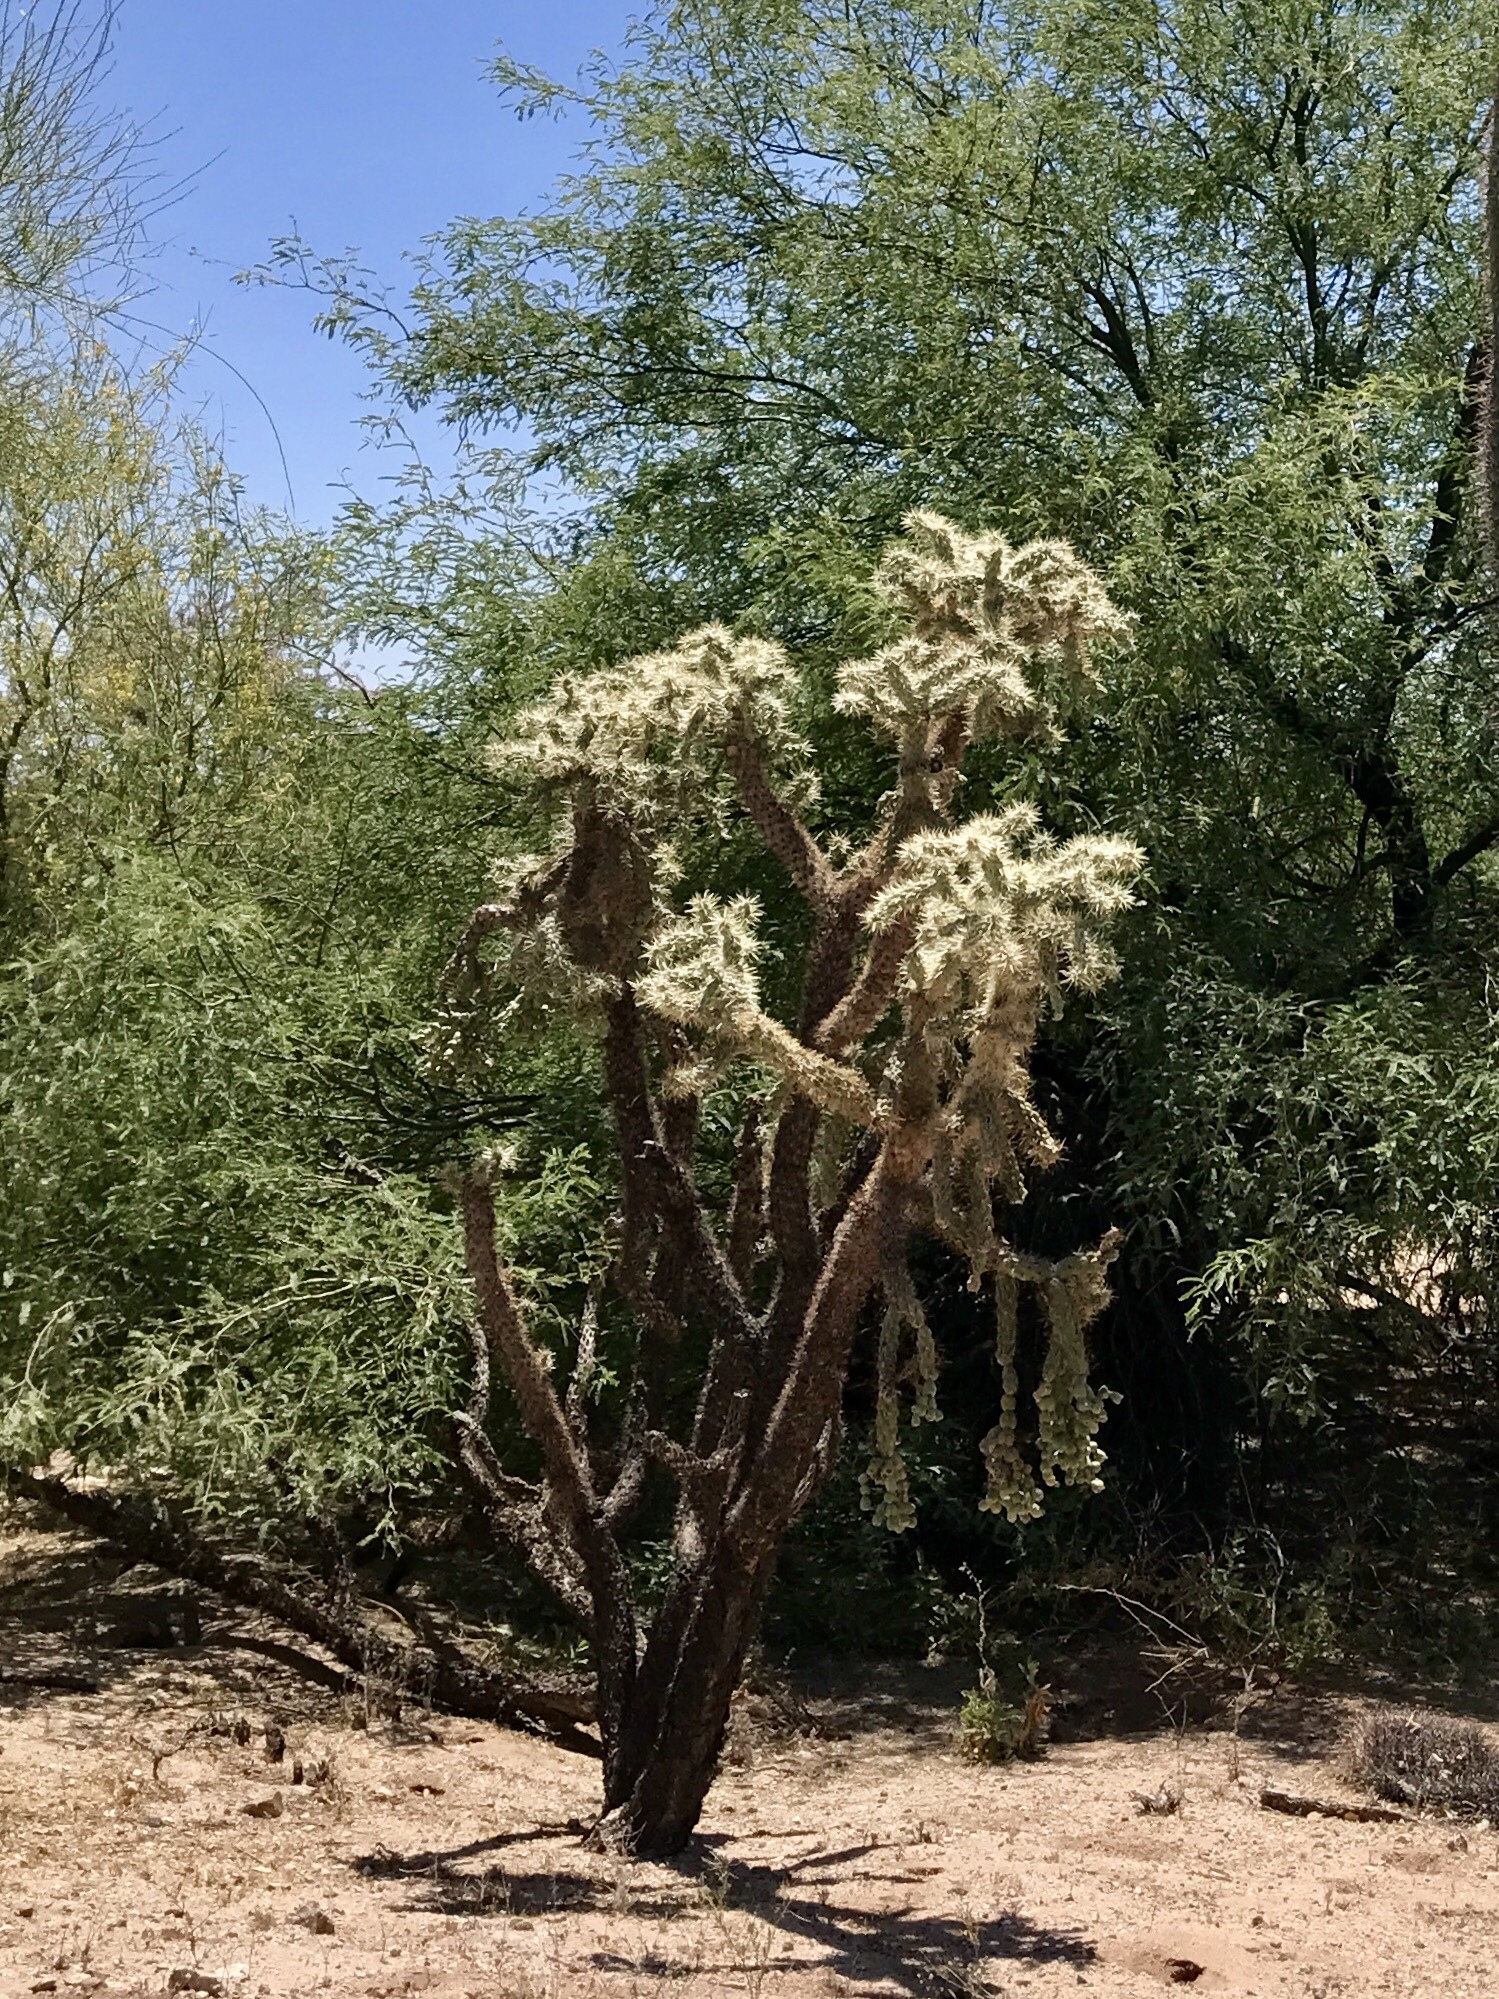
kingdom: Plantae
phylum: Tracheophyta
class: Magnoliopsida
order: Caryophyllales
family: Cactaceae
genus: Cylindropuntia
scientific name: Cylindropuntia fulgida
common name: Jumping cholla
